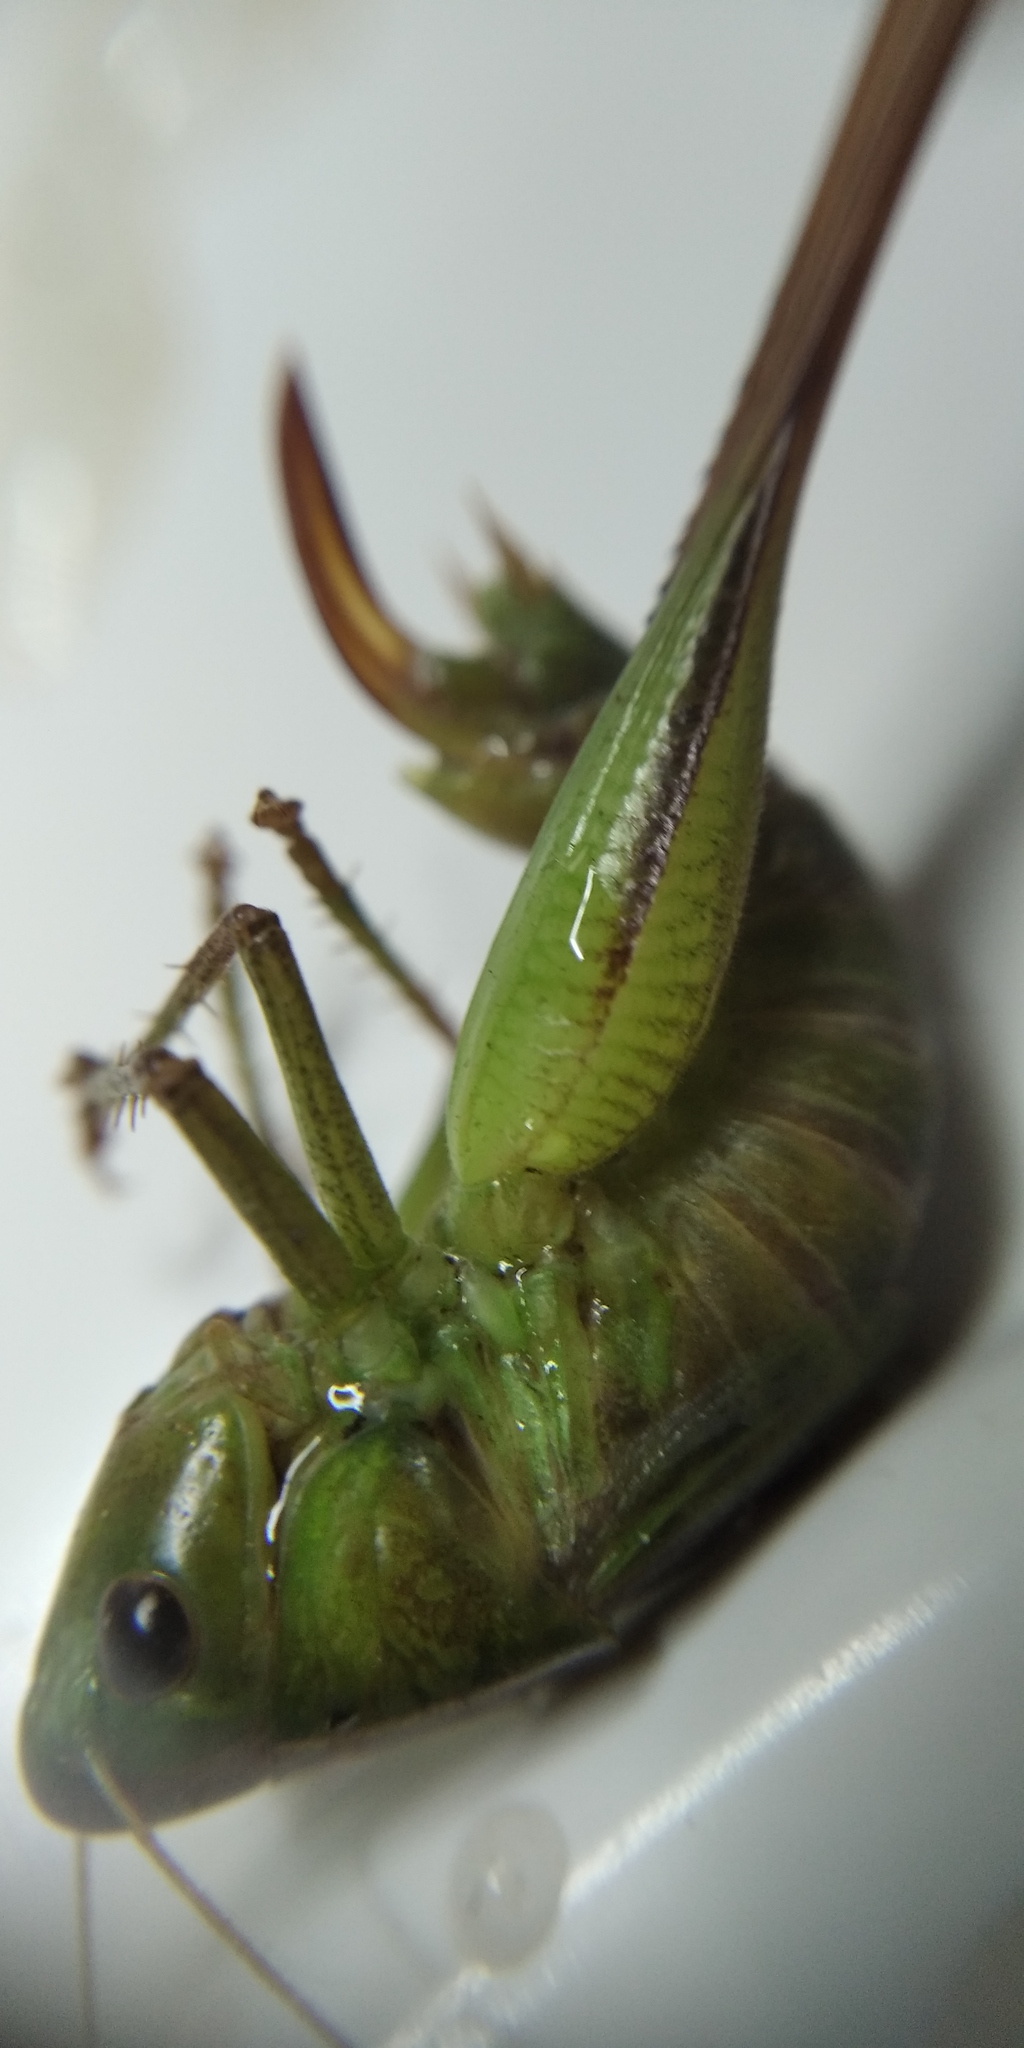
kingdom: Animalia
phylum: Arthropoda
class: Insecta
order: Orthoptera
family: Tettigoniidae
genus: Bicolorana
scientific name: Bicolorana bicolor
